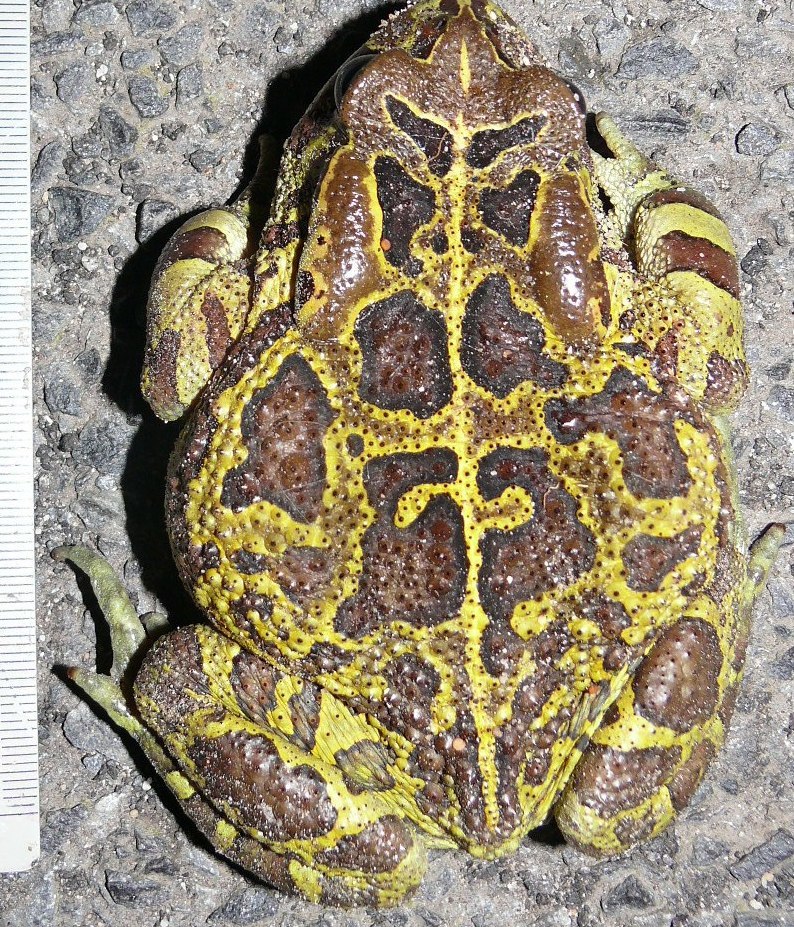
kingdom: Animalia
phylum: Chordata
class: Amphibia
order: Anura
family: Bufonidae
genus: Sclerophrys
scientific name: Sclerophrys pantherina
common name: Panther toad
